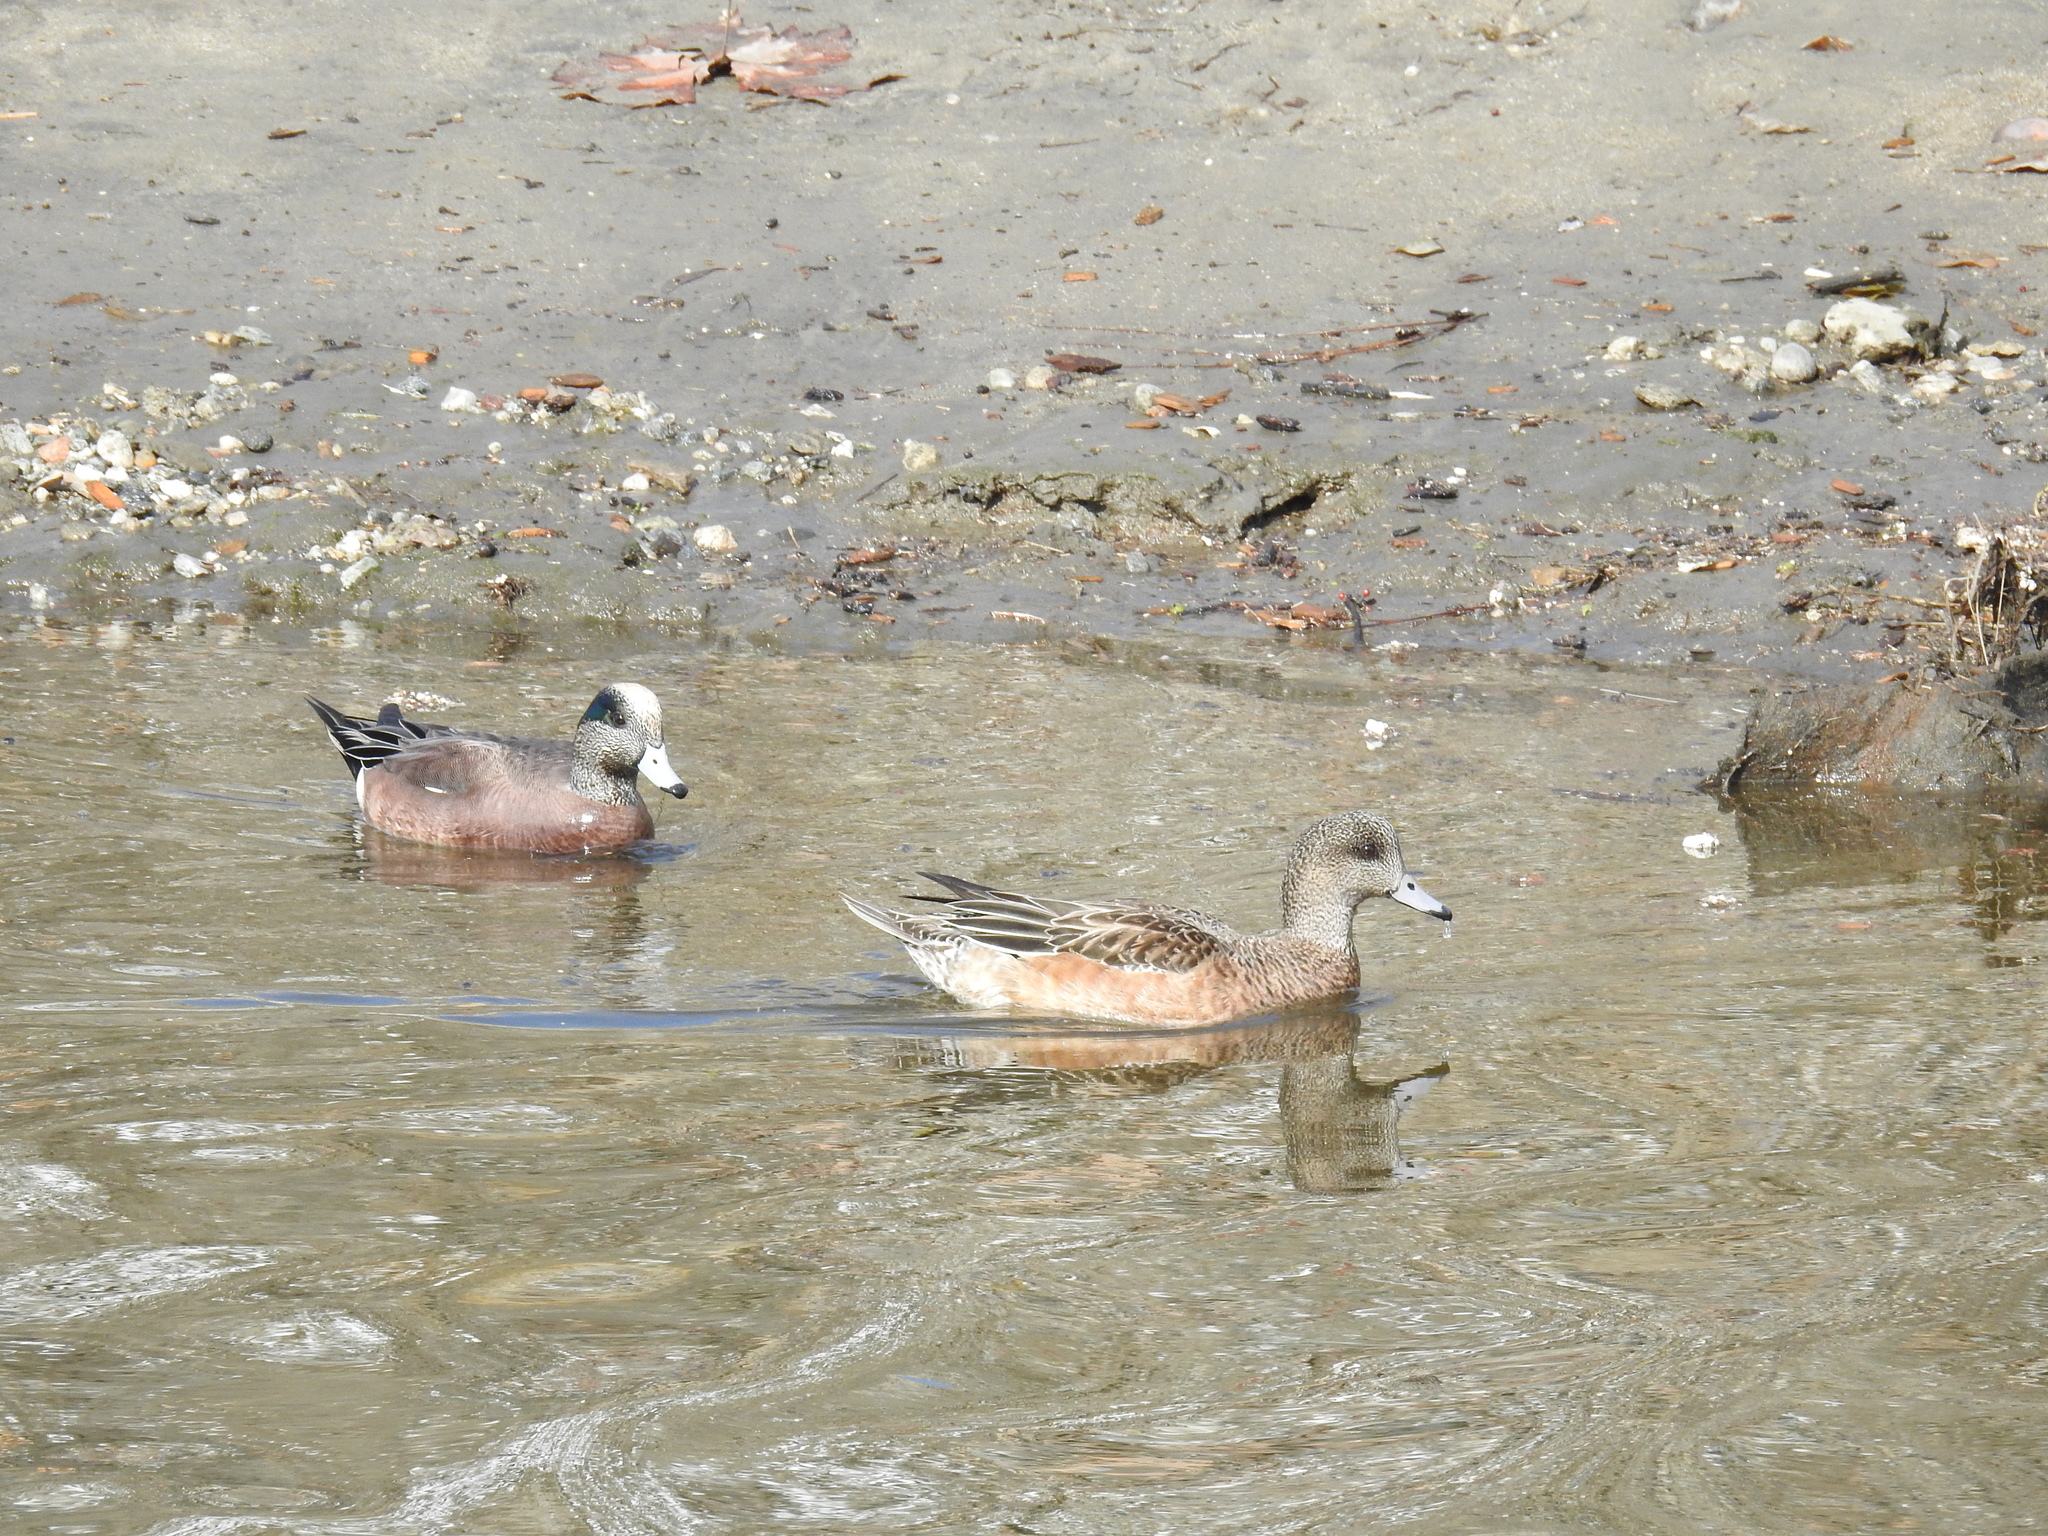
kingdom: Animalia
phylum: Chordata
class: Aves
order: Anseriformes
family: Anatidae
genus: Mareca
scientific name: Mareca americana
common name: American wigeon
